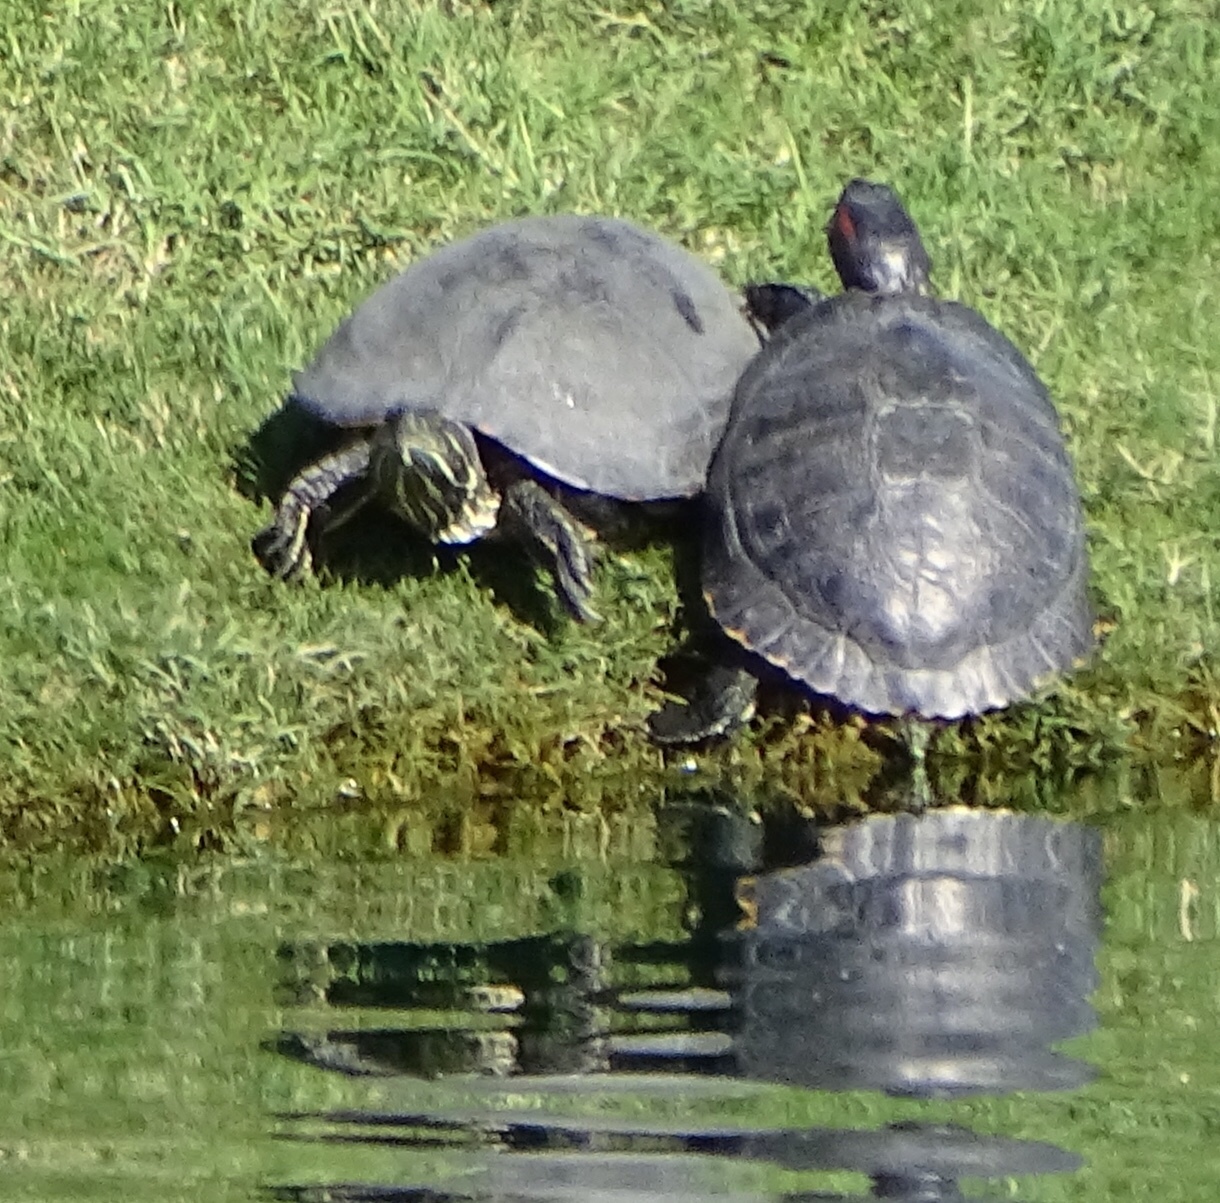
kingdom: Animalia
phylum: Chordata
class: Testudines
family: Emydidae
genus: Trachemys
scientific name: Trachemys scripta
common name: Slider
